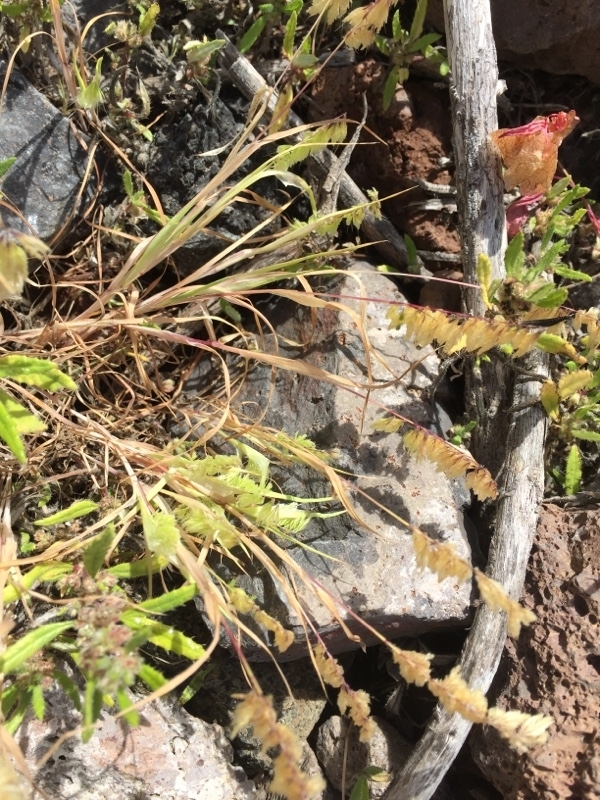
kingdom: Plantae
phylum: Tracheophyta
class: Liliopsida
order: Poales
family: Poaceae
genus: Lamarckia
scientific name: Lamarckia aurea
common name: Golden dog's-tail
